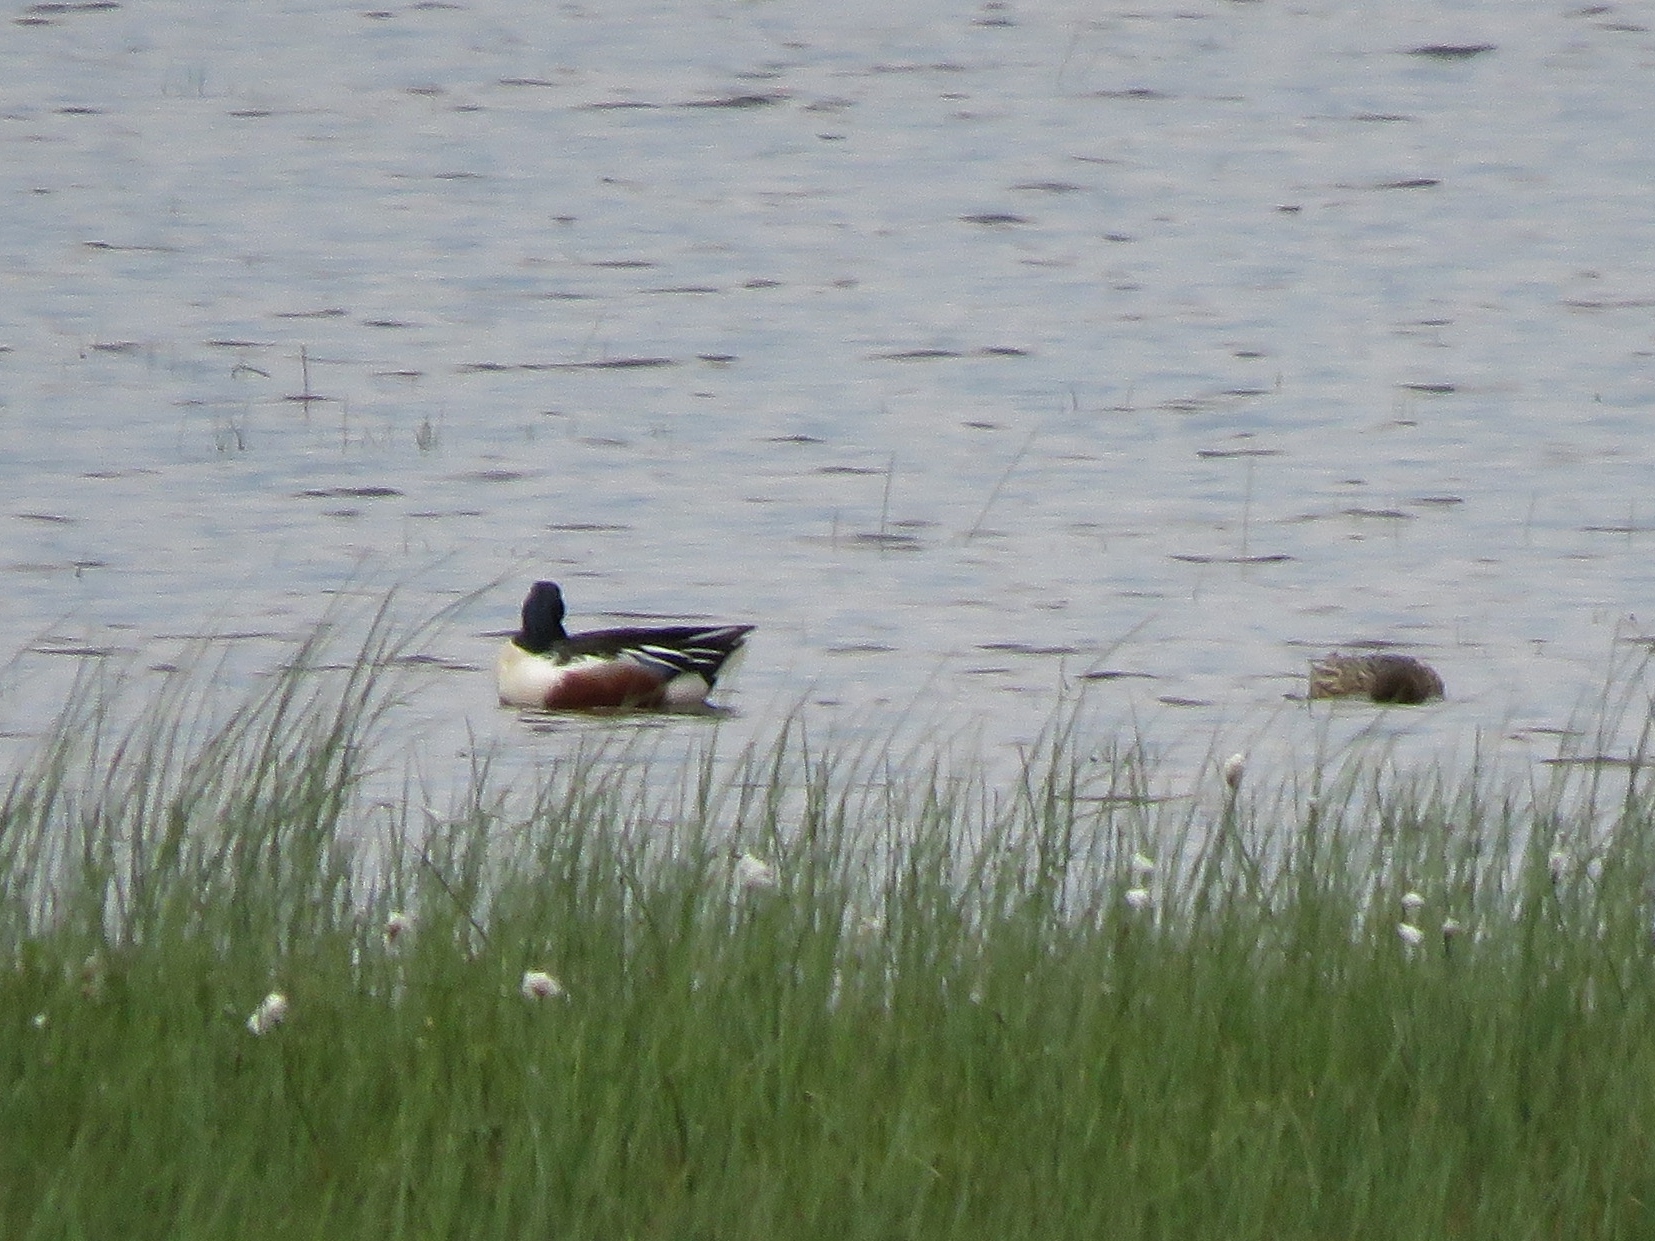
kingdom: Animalia
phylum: Chordata
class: Aves
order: Anseriformes
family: Anatidae
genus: Spatula
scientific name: Spatula clypeata
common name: Northern shoveler
